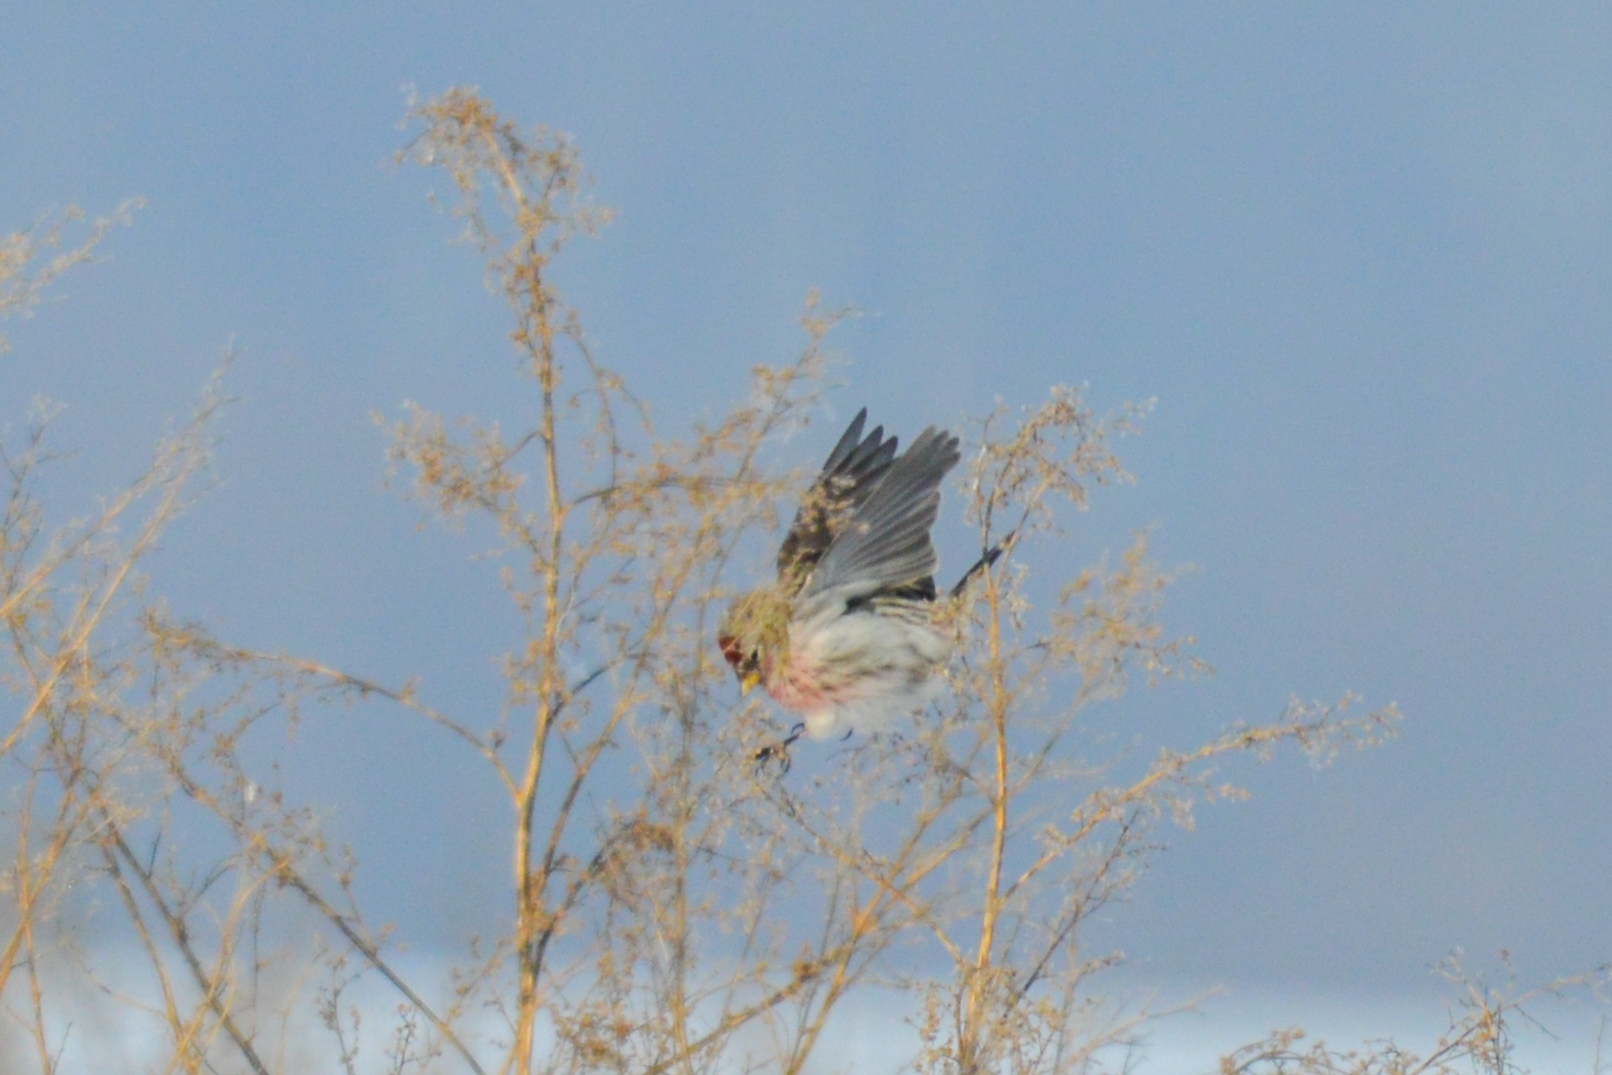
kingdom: Animalia
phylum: Chordata
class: Aves
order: Passeriformes
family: Fringillidae
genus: Acanthis
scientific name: Acanthis flammea
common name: Common redpoll
